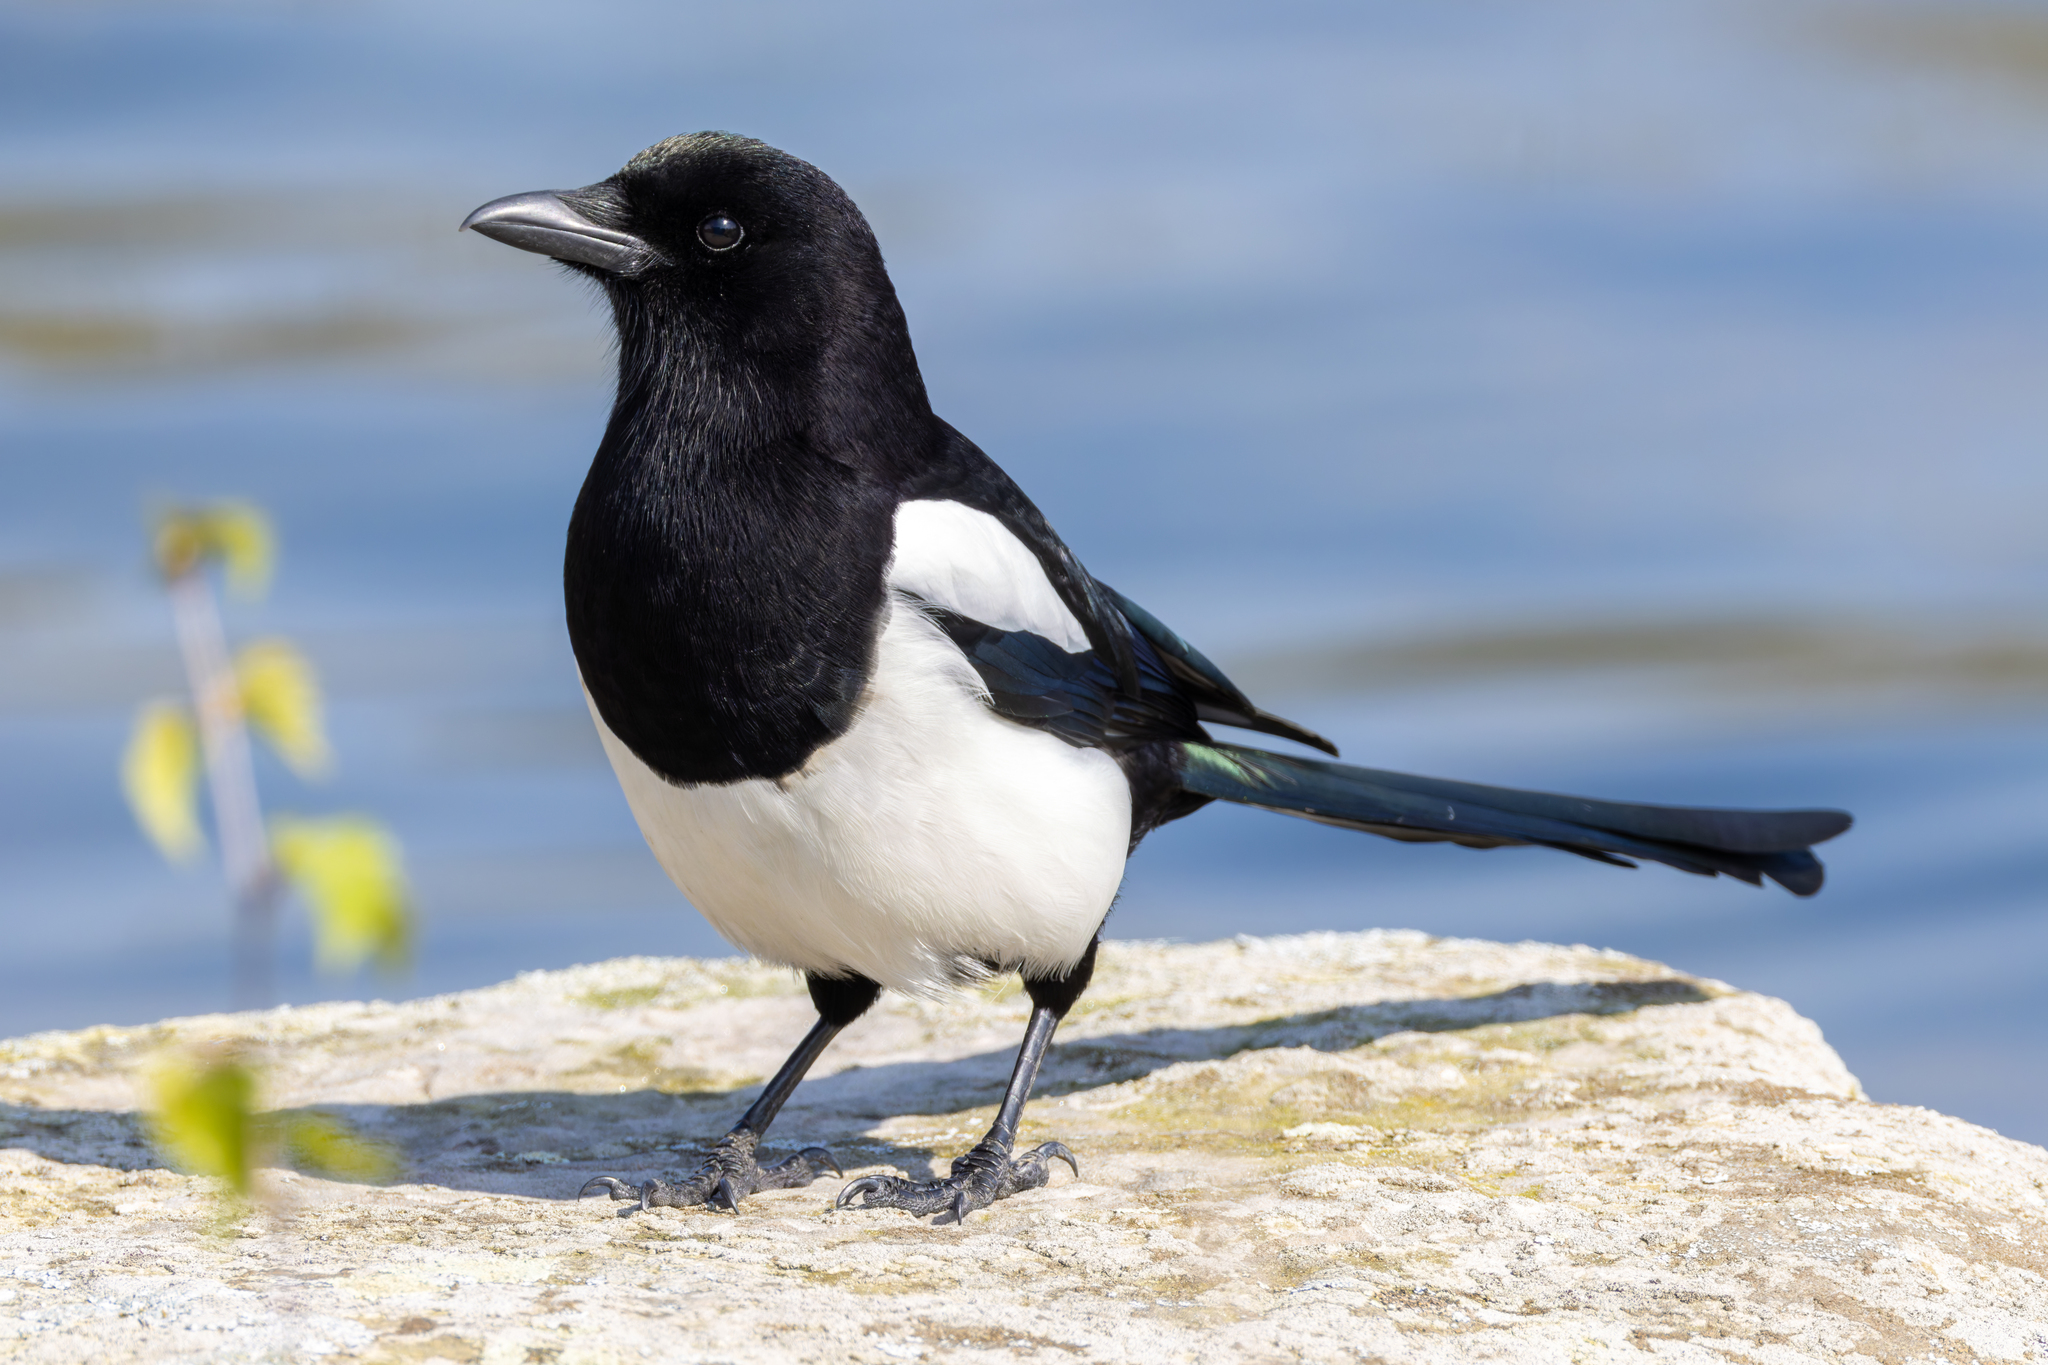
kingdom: Animalia
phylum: Chordata
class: Aves
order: Passeriformes
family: Corvidae
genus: Pica
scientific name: Pica pica
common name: Eurasian magpie
